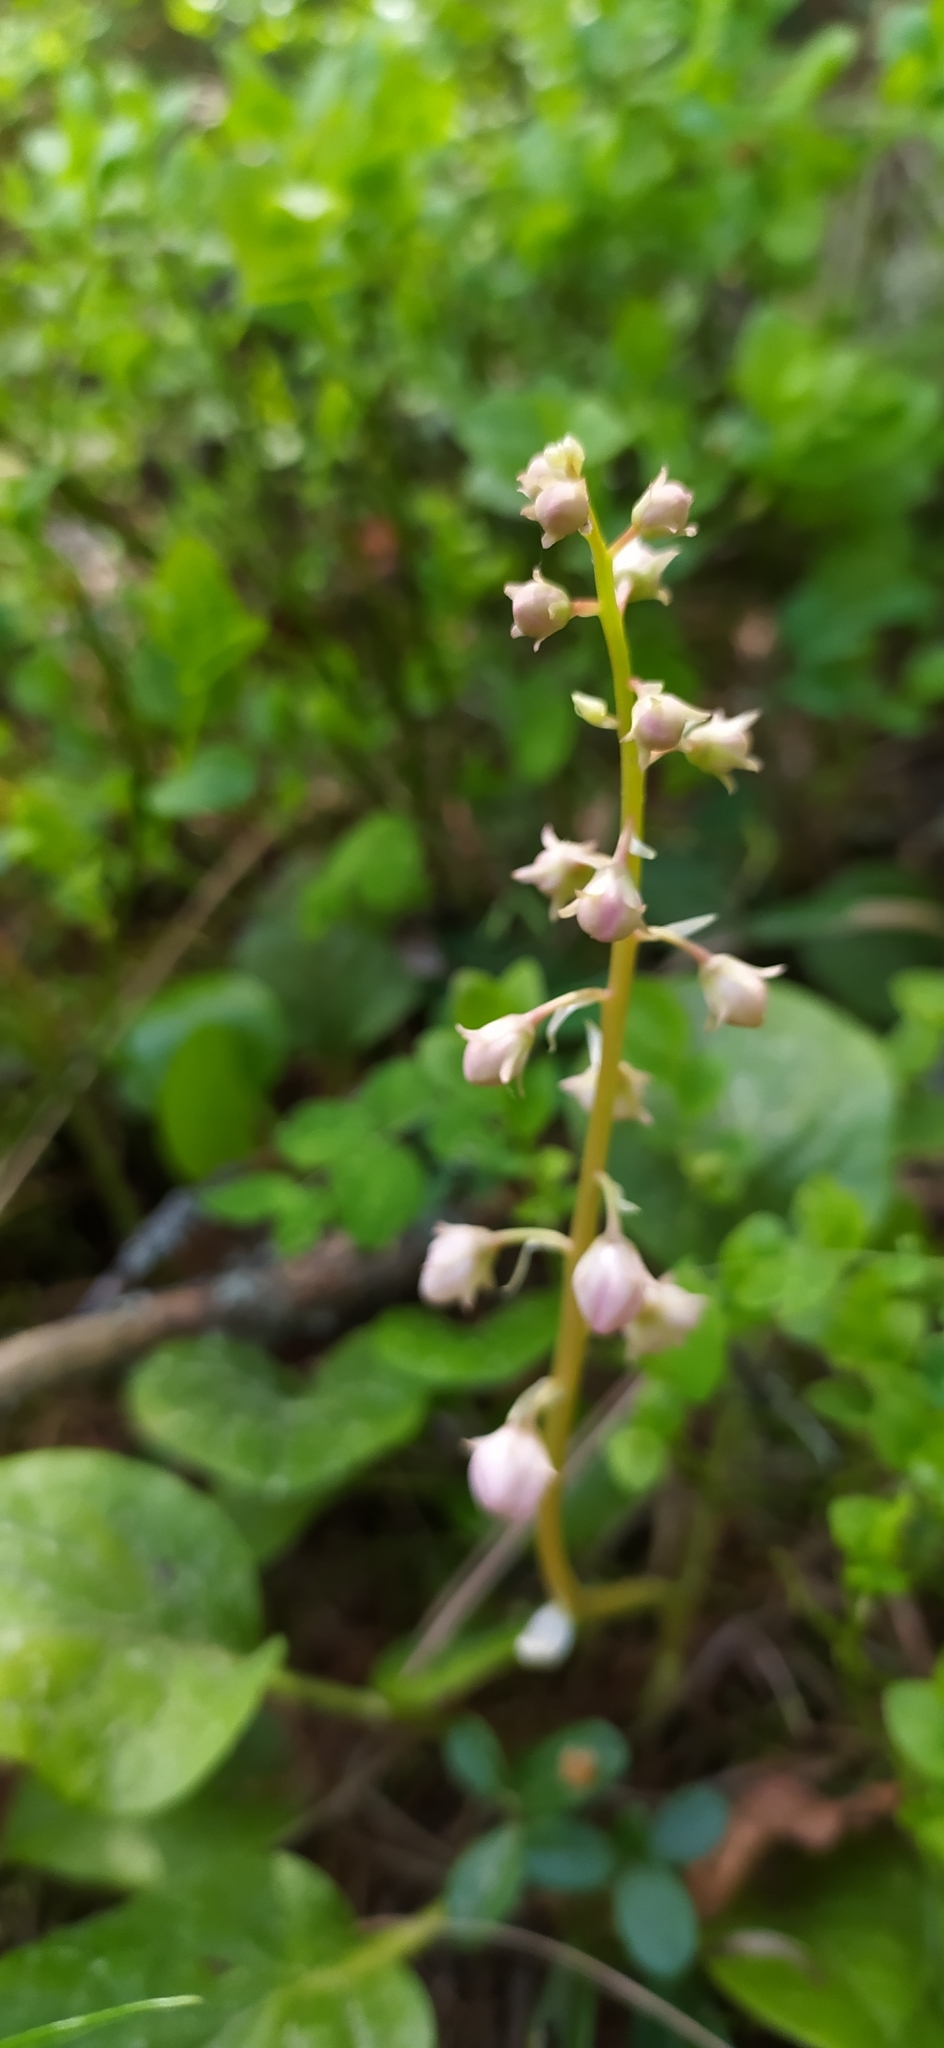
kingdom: Plantae
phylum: Tracheophyta
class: Magnoliopsida
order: Ericales
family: Ericaceae
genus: Pyrola
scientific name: Pyrola asarifolia
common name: Bog wintergreen
